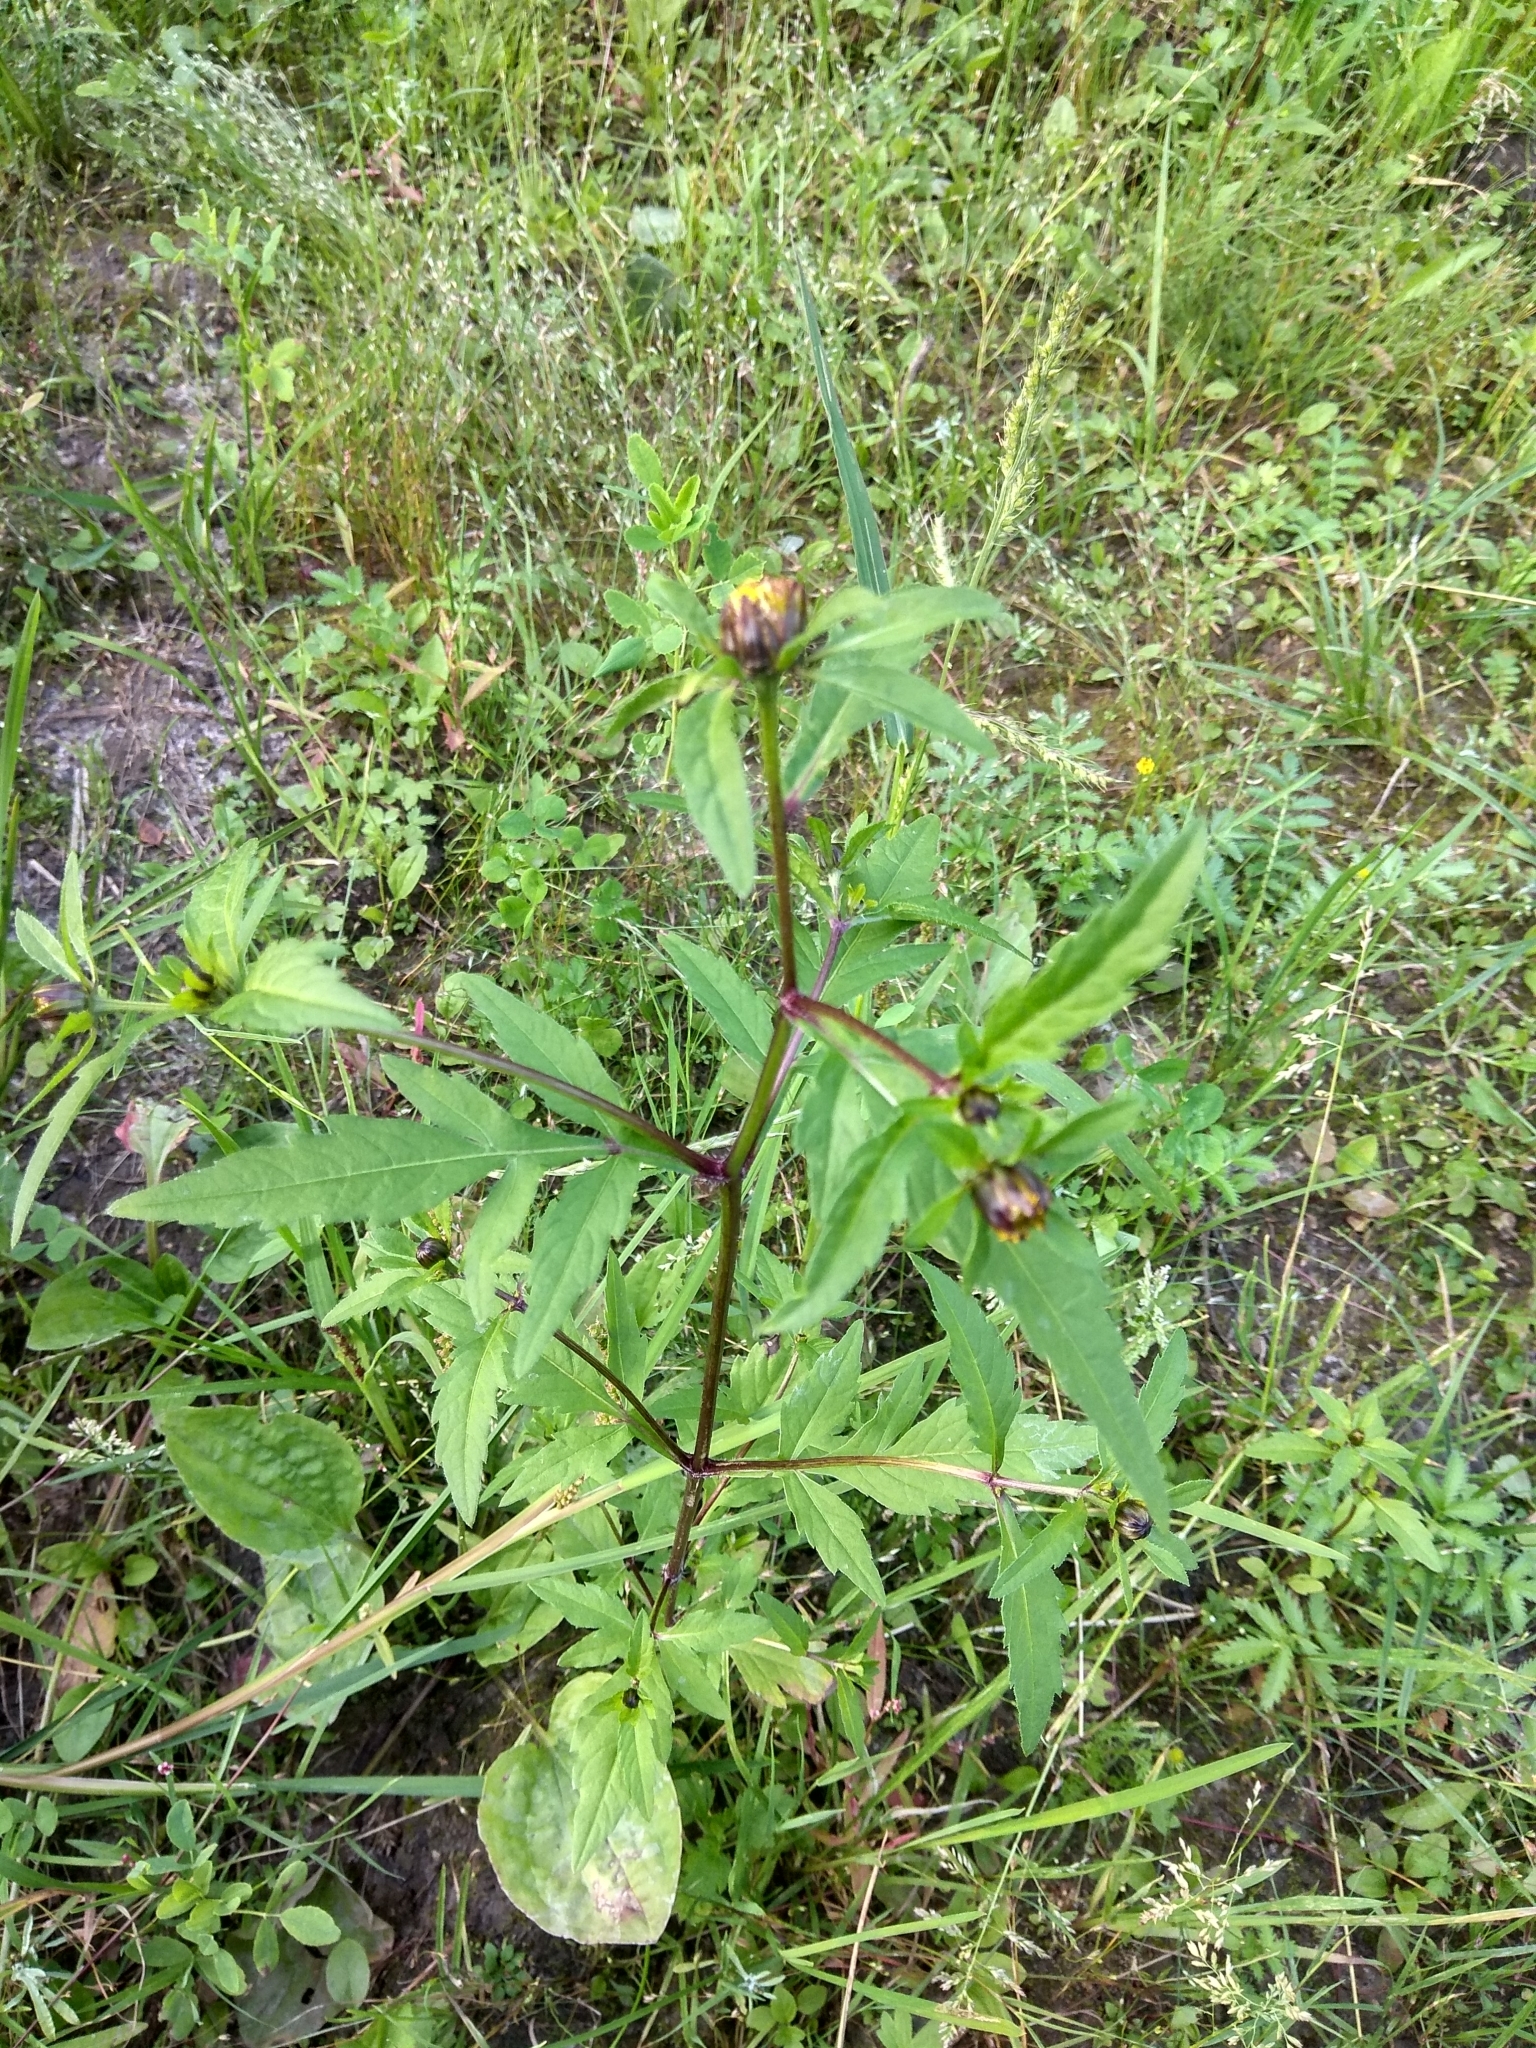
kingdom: Plantae
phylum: Tracheophyta
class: Magnoliopsida
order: Asterales
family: Asteraceae
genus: Bidens
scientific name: Bidens tripartita
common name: Trifid bur-marigold
